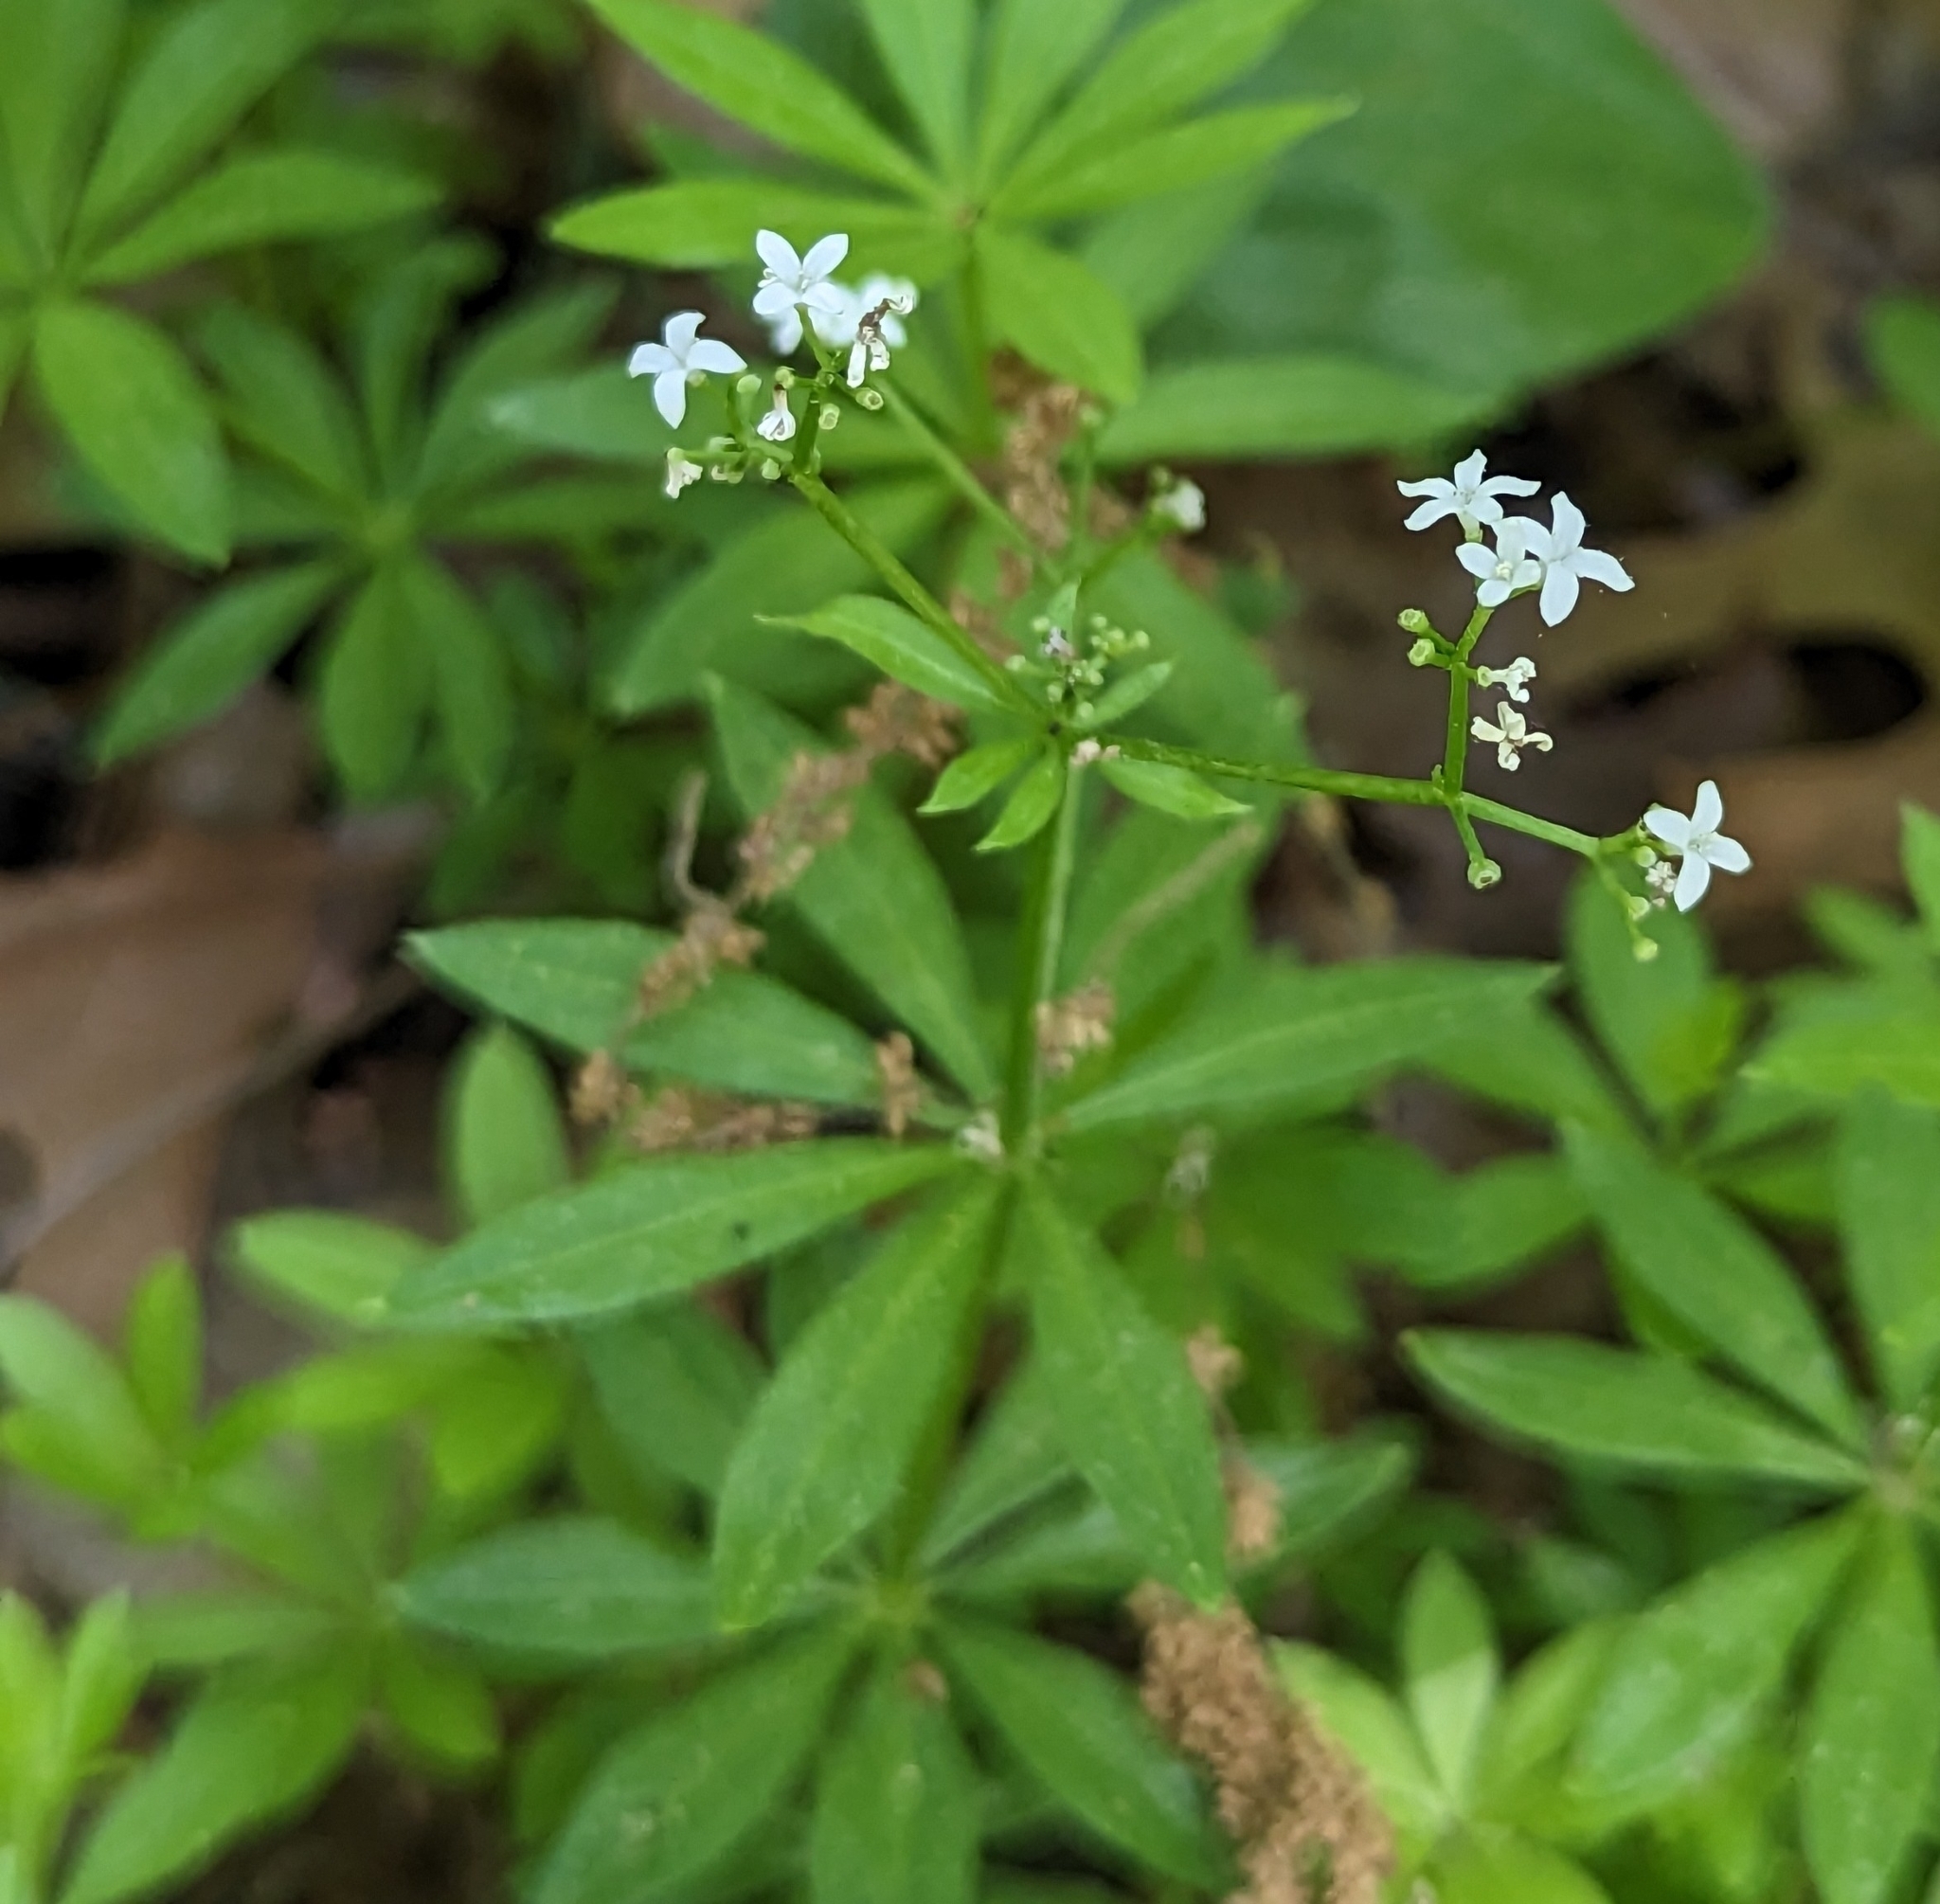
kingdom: Plantae
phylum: Tracheophyta
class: Magnoliopsida
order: Gentianales
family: Rubiaceae
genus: Galium
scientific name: Galium odoratum
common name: Sweet woodruff
